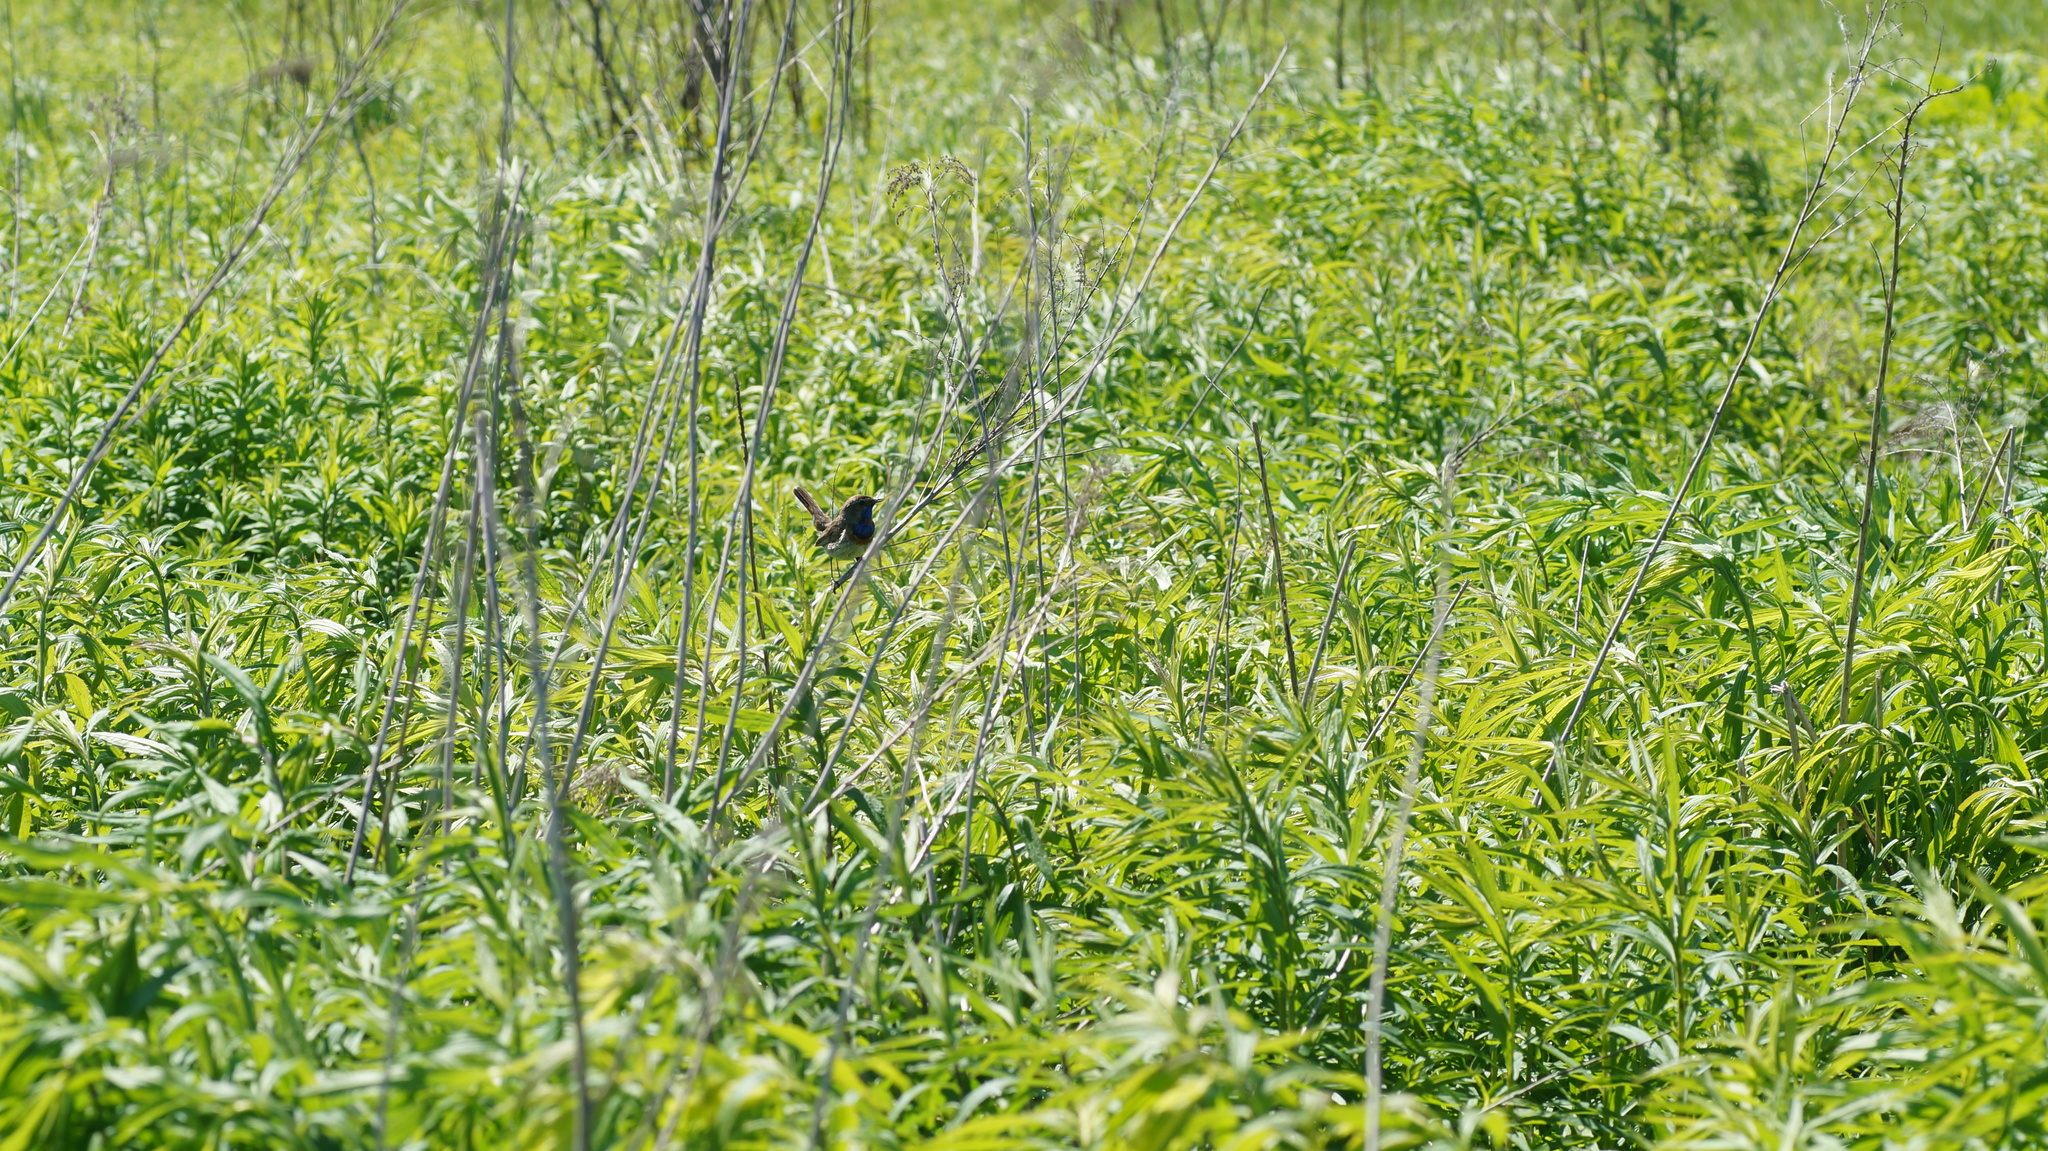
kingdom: Animalia
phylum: Chordata
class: Aves
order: Passeriformes
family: Muscicapidae
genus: Luscinia
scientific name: Luscinia svecica
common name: Bluethroat
